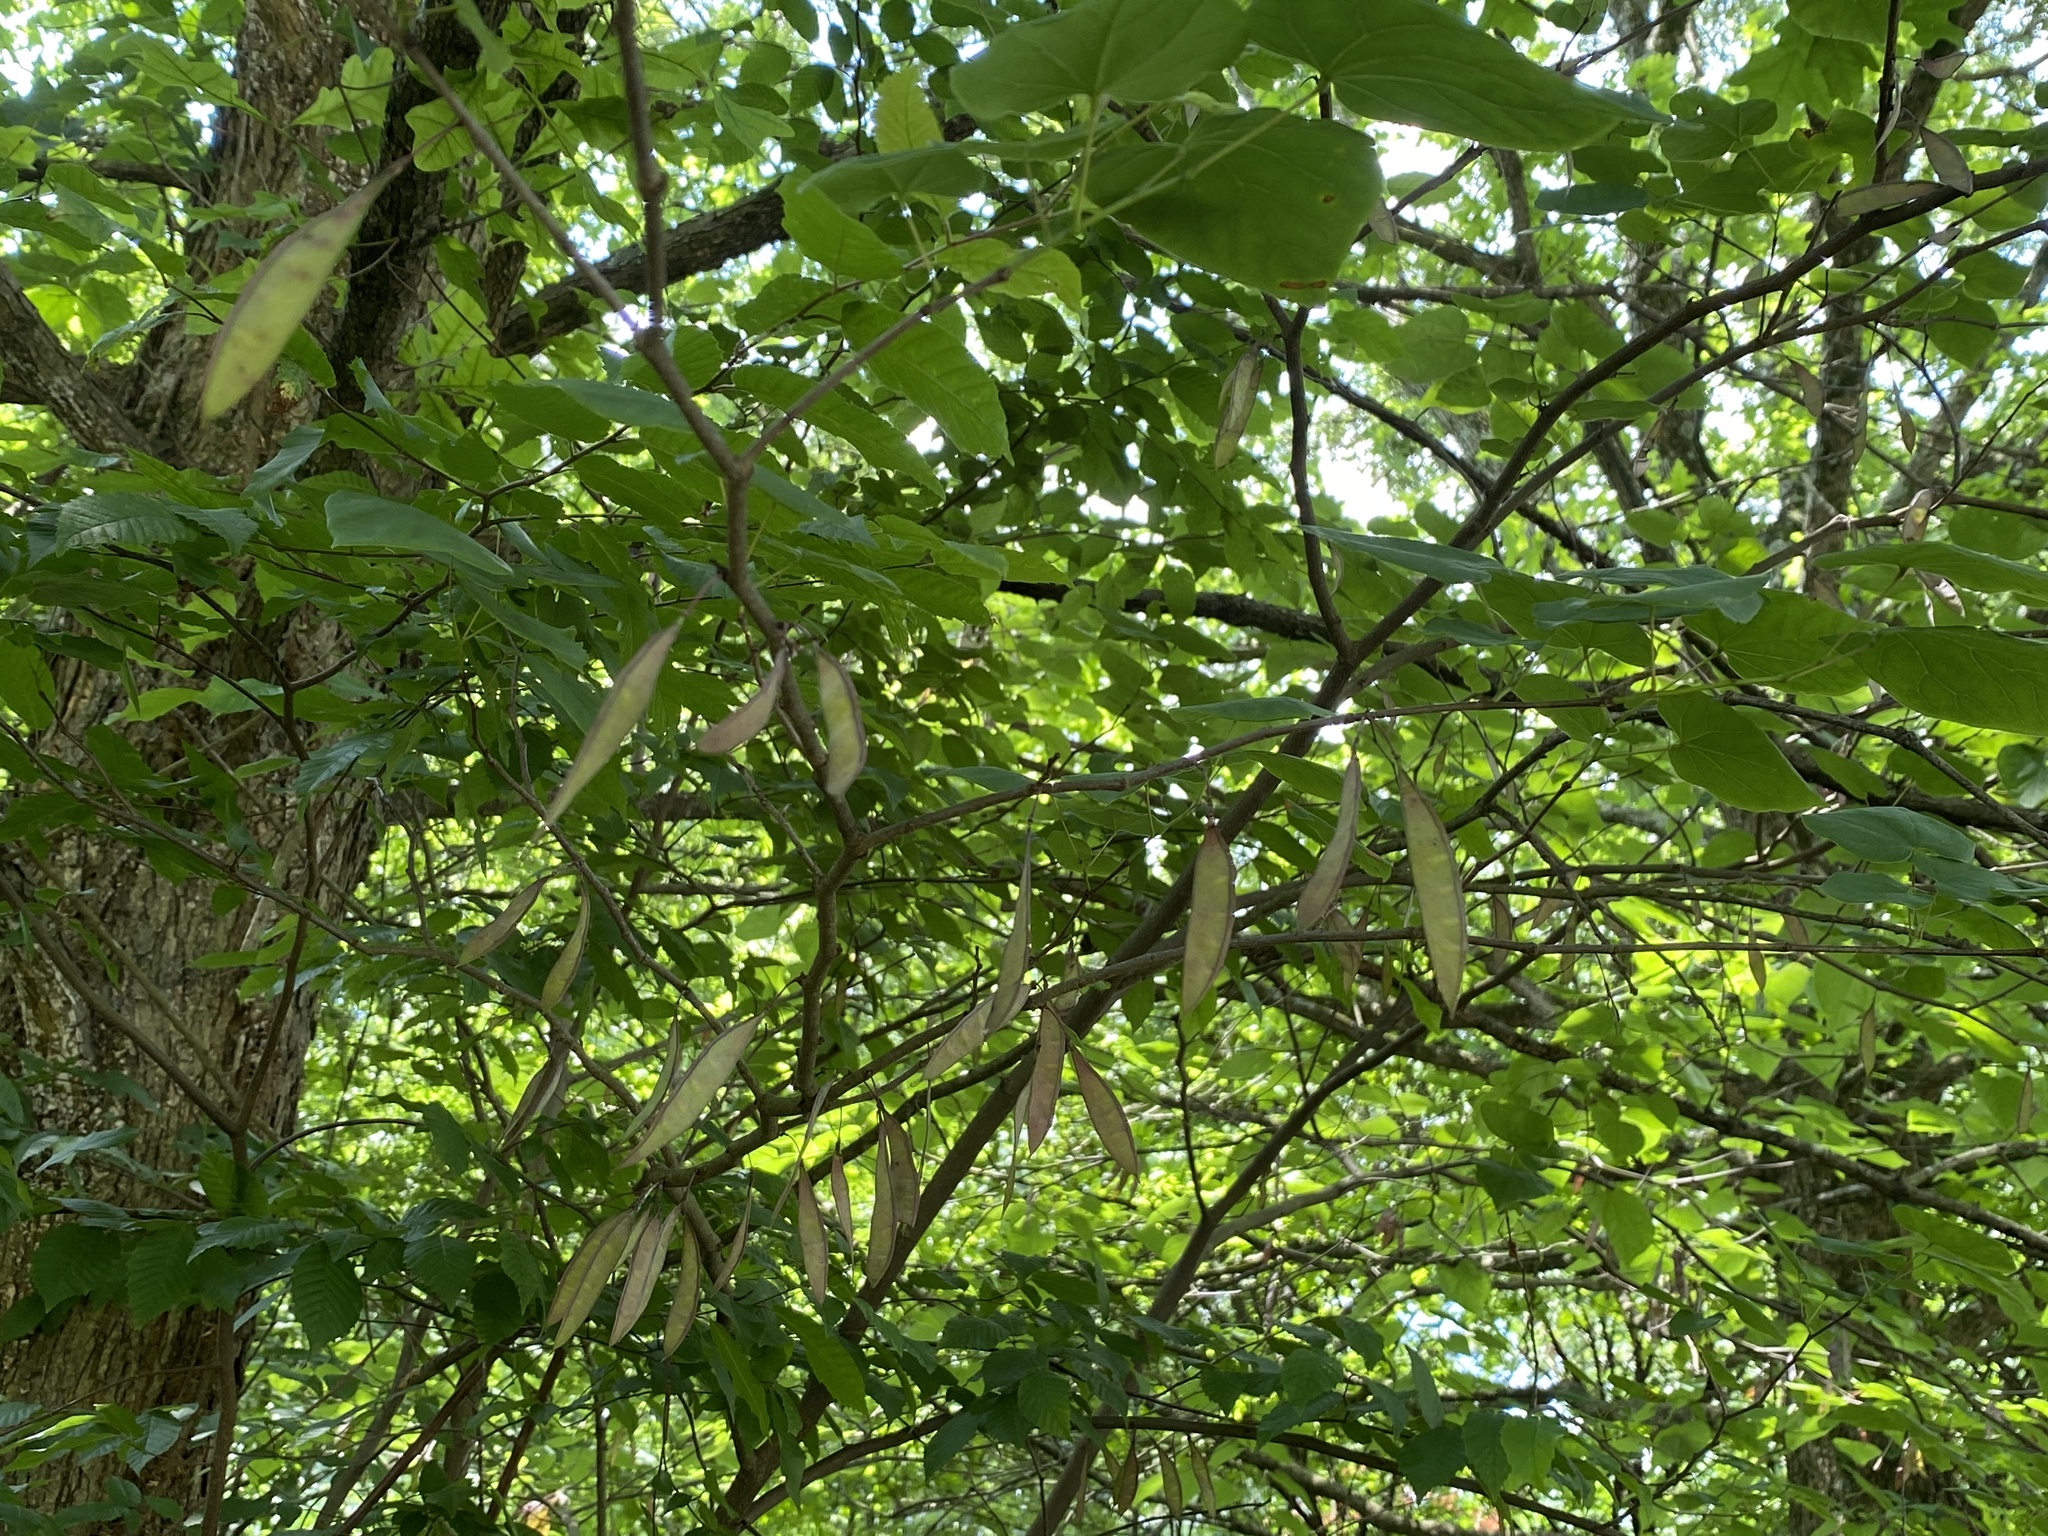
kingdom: Plantae
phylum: Tracheophyta
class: Magnoliopsida
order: Fabales
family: Fabaceae
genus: Cercis
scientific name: Cercis canadensis
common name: Eastern redbud
